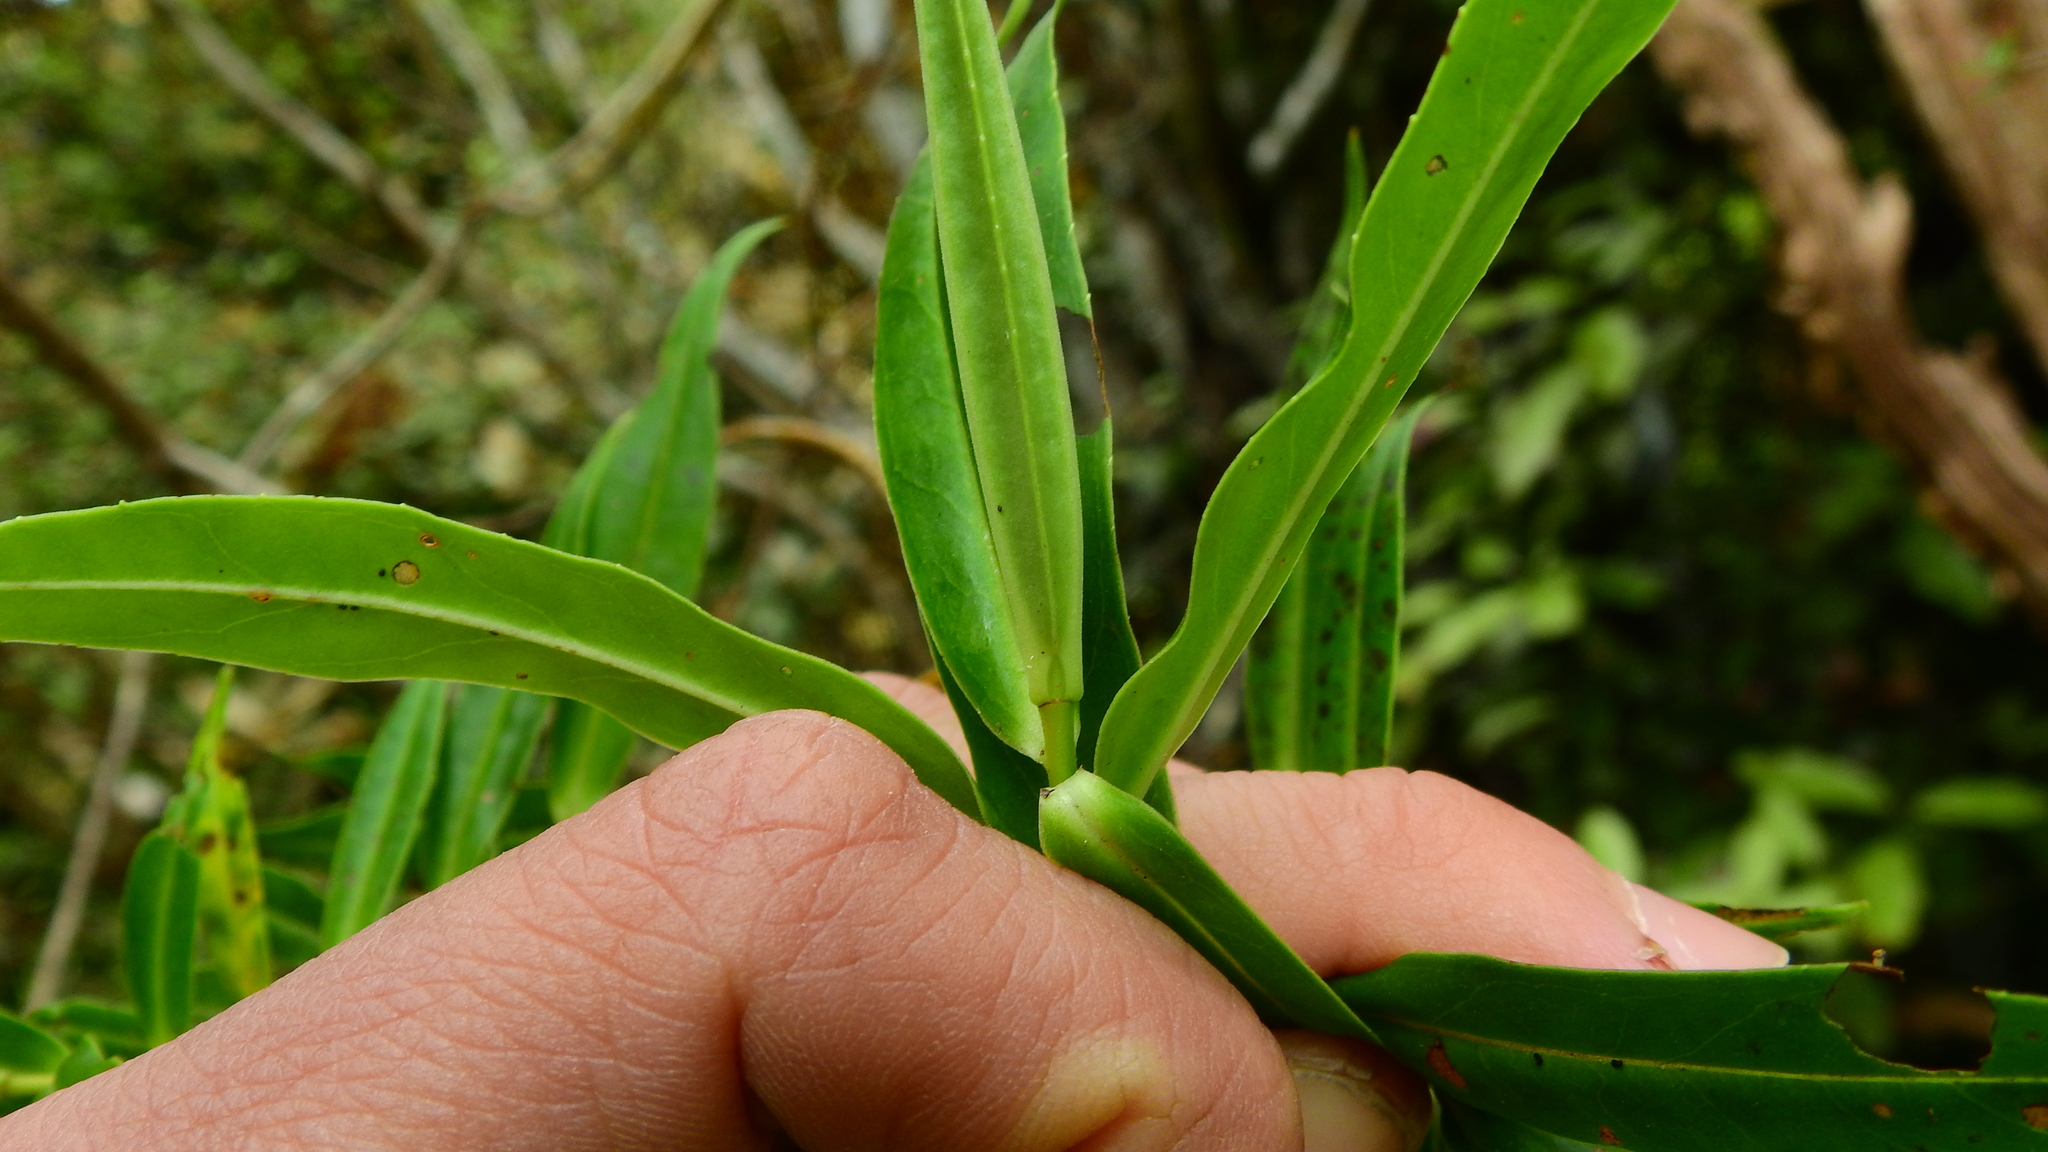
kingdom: Plantae
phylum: Tracheophyta
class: Magnoliopsida
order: Lamiales
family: Plantaginaceae
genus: Veronica
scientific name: Veronica salicifolia
